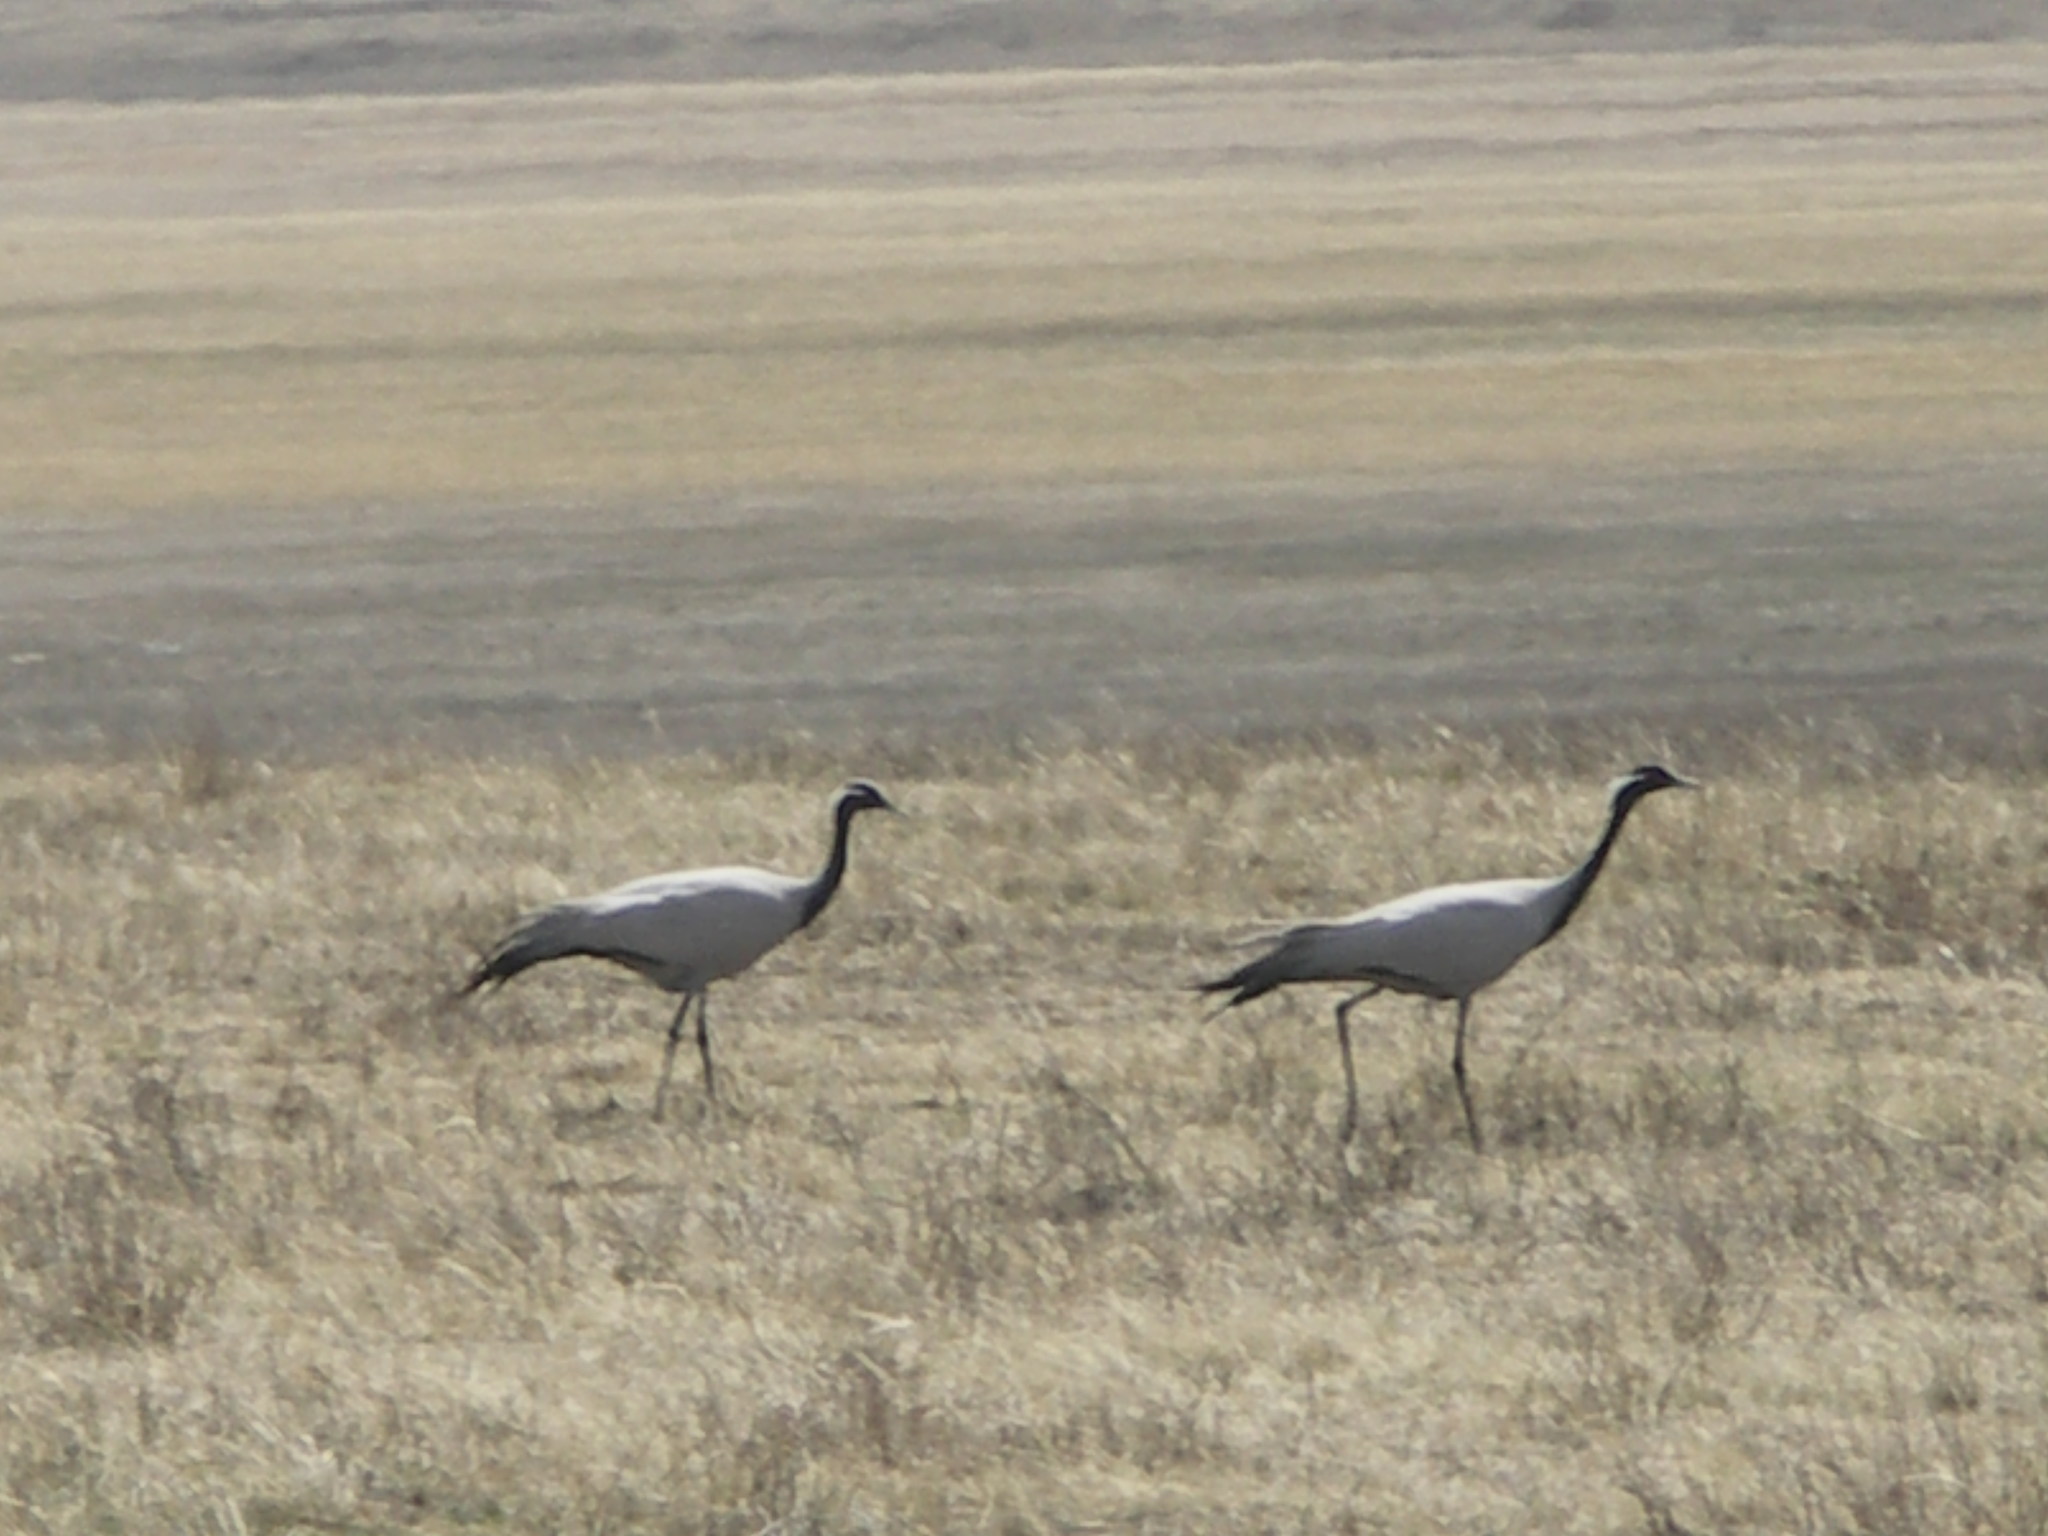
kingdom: Animalia
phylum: Chordata
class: Aves
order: Gruiformes
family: Gruidae
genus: Anthropoides
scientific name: Anthropoides virgo
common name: Demoiselle crane
